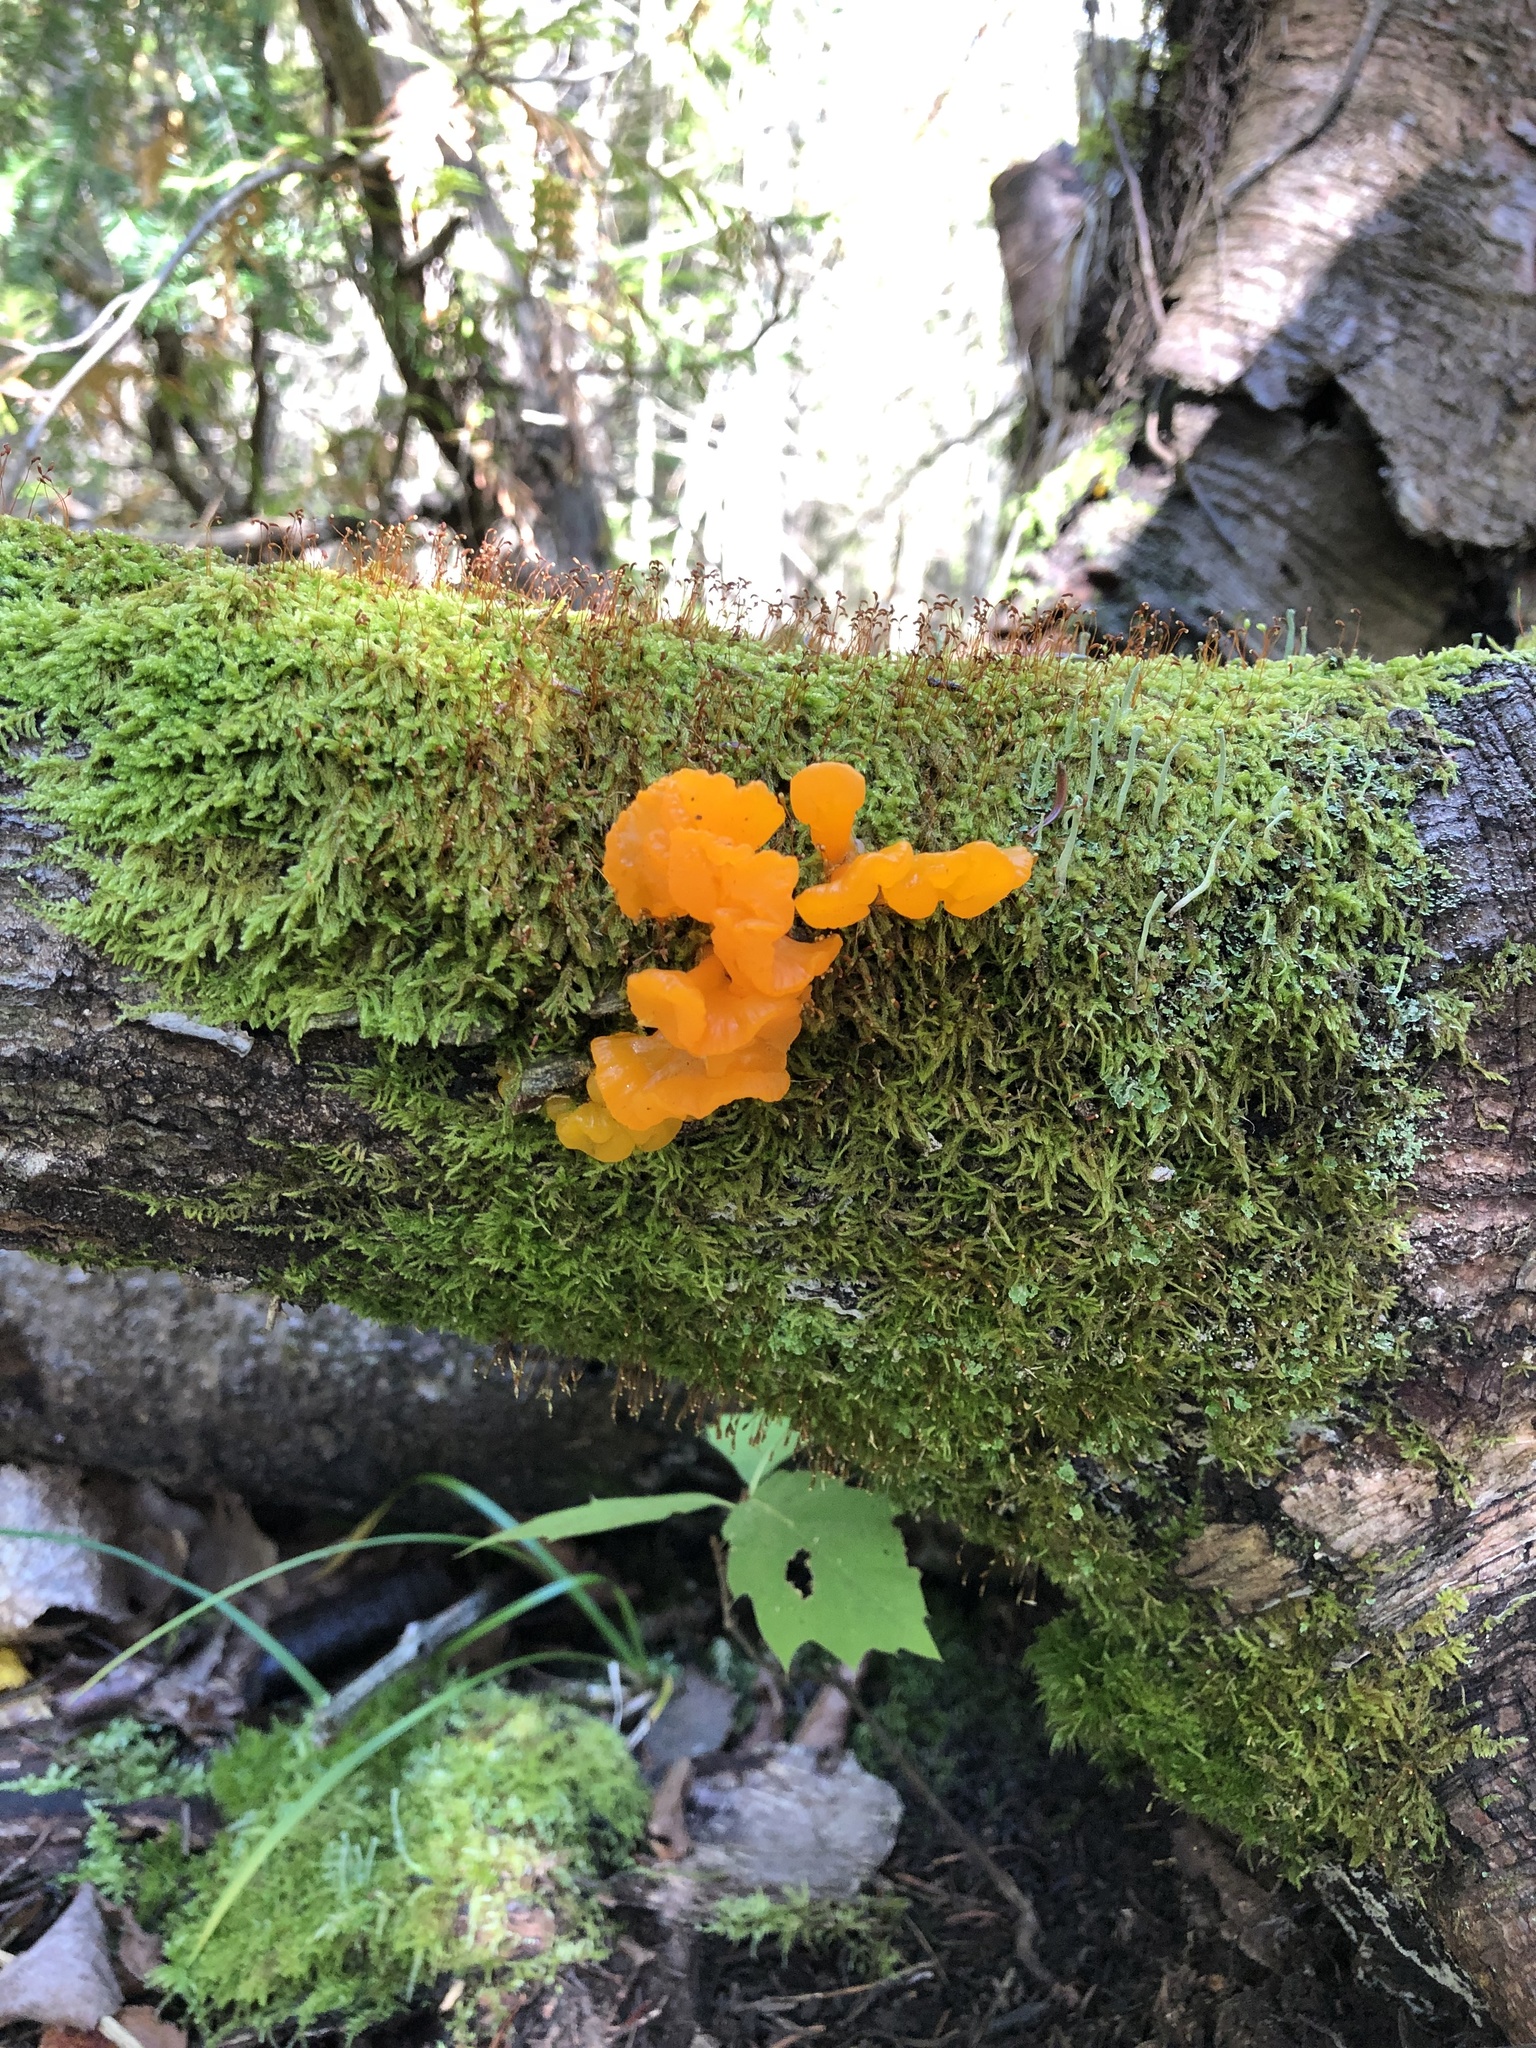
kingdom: Fungi
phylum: Basidiomycota
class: Dacrymycetes
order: Dacrymycetales
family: Dacrymycetaceae
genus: Dacrymyces
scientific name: Dacrymyces chrysospermus
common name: Orange jelly spot
